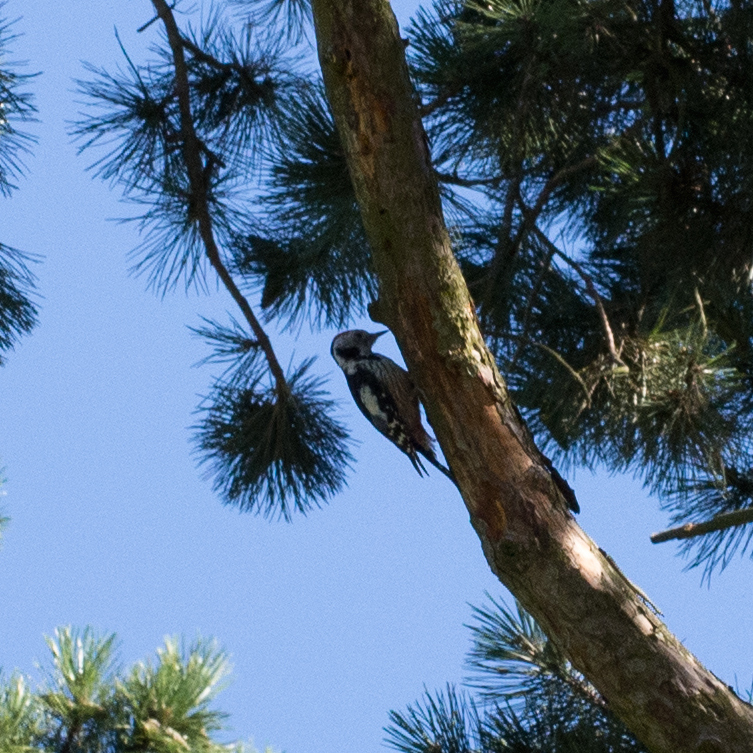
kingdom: Animalia
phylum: Chordata
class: Aves
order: Piciformes
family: Picidae
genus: Dendrocoptes
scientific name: Dendrocoptes medius
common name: Middle spotted woodpecker
